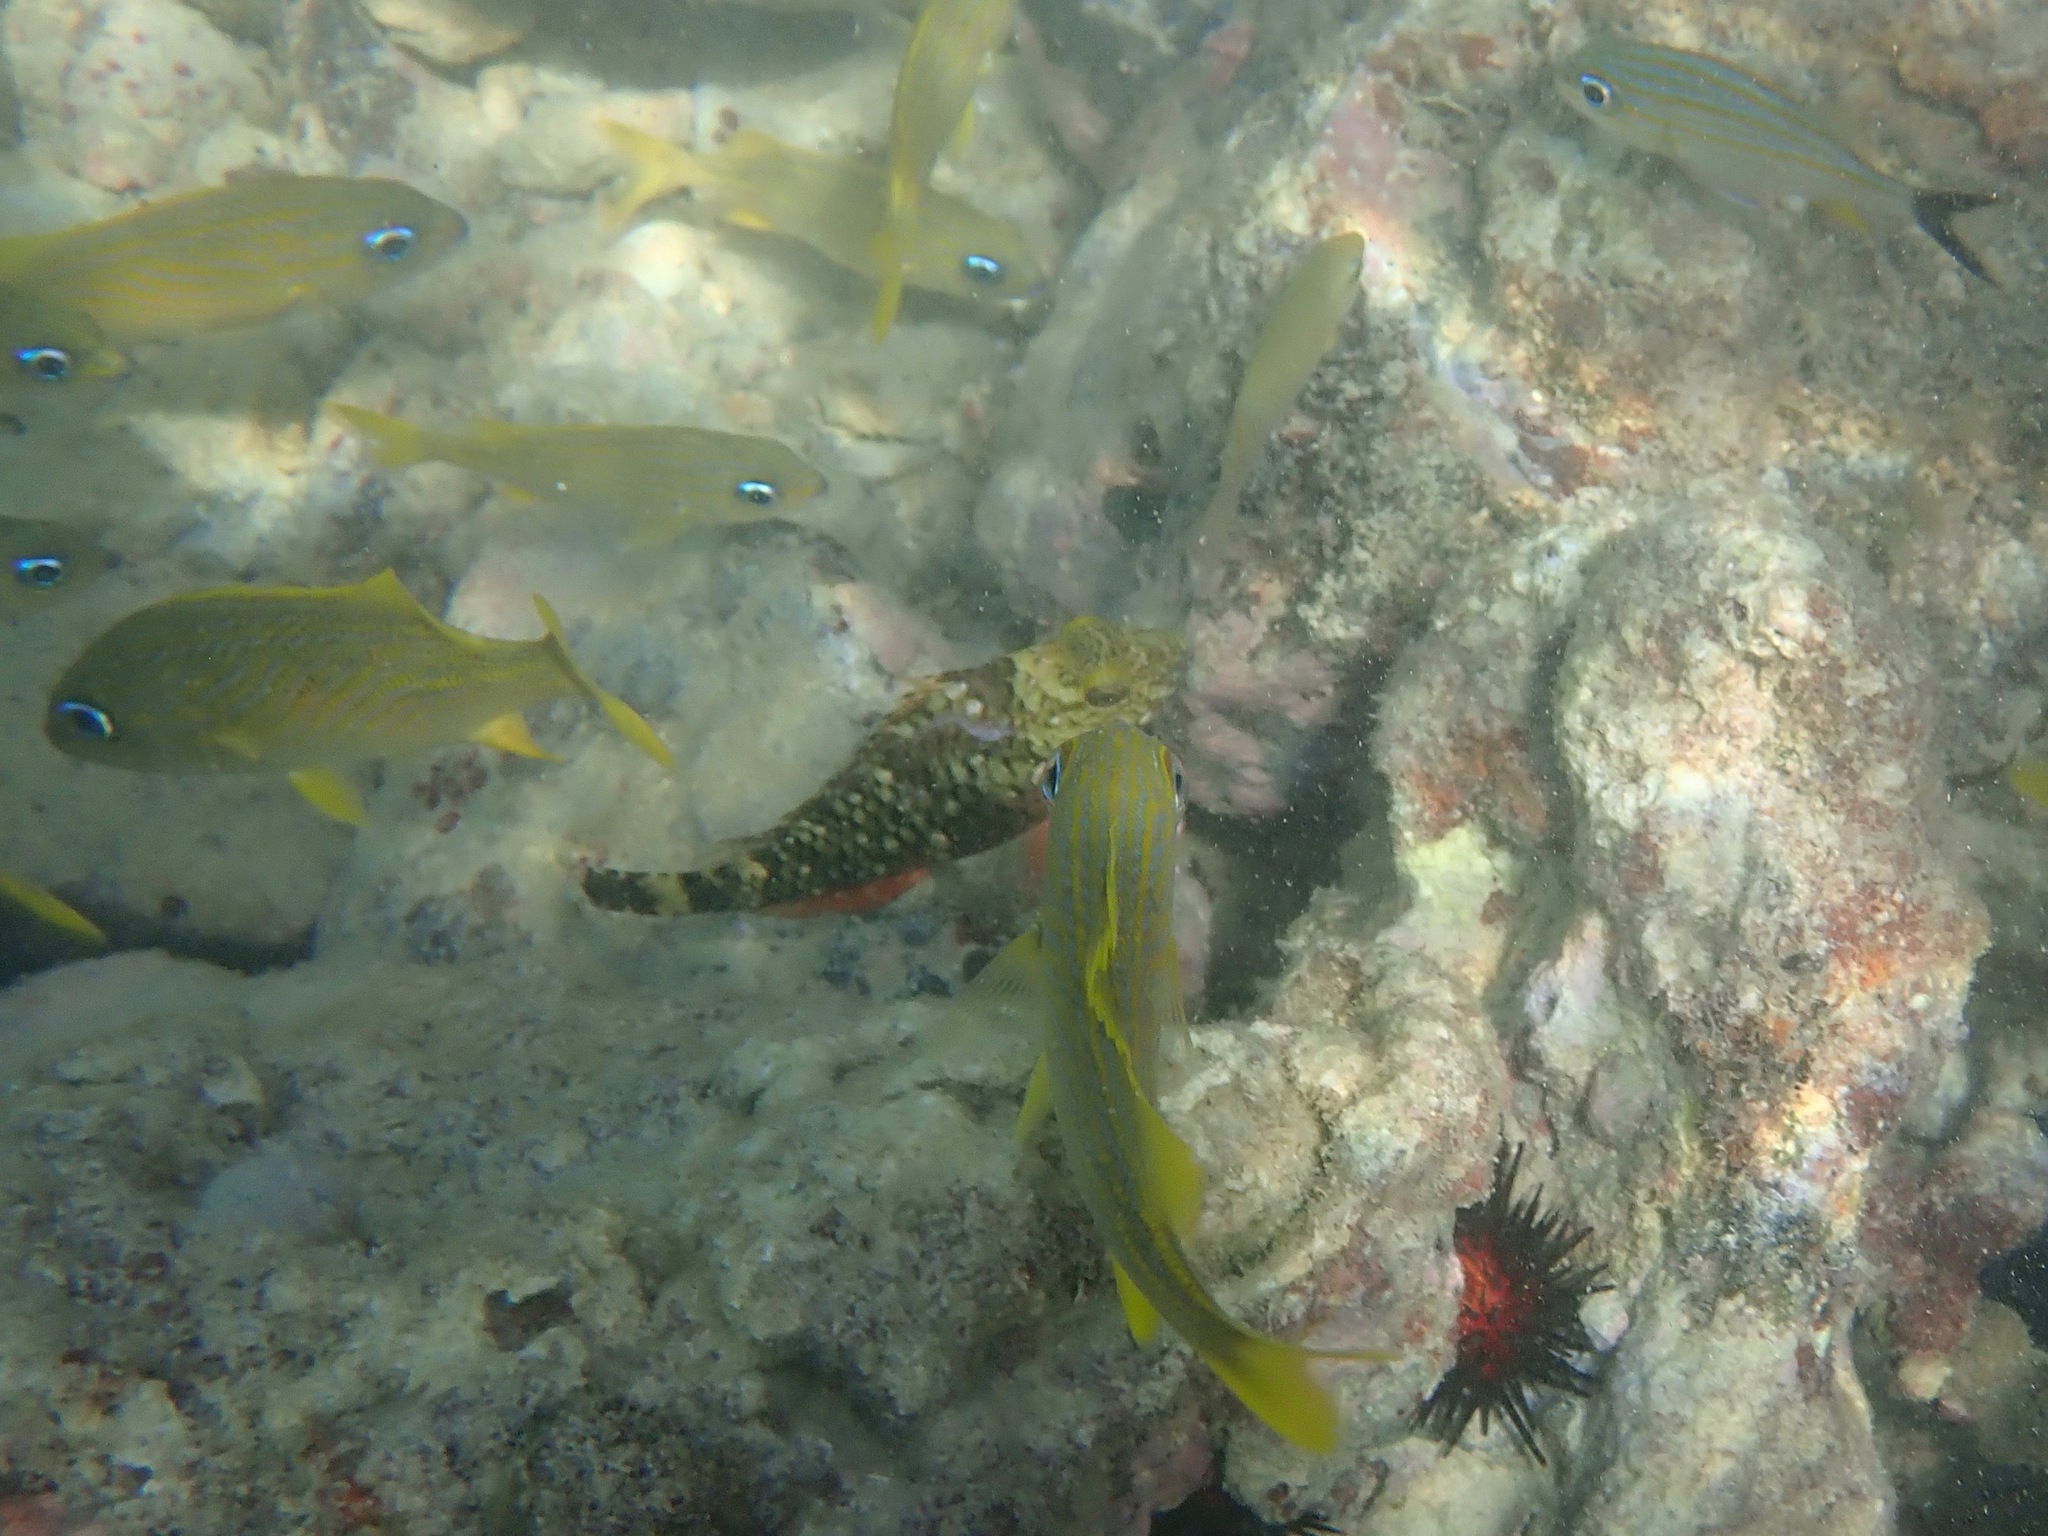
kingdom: Animalia
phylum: Chordata
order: Perciformes
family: Scaridae
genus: Sparisoma
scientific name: Sparisoma viride
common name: Stoplight parrotfish
